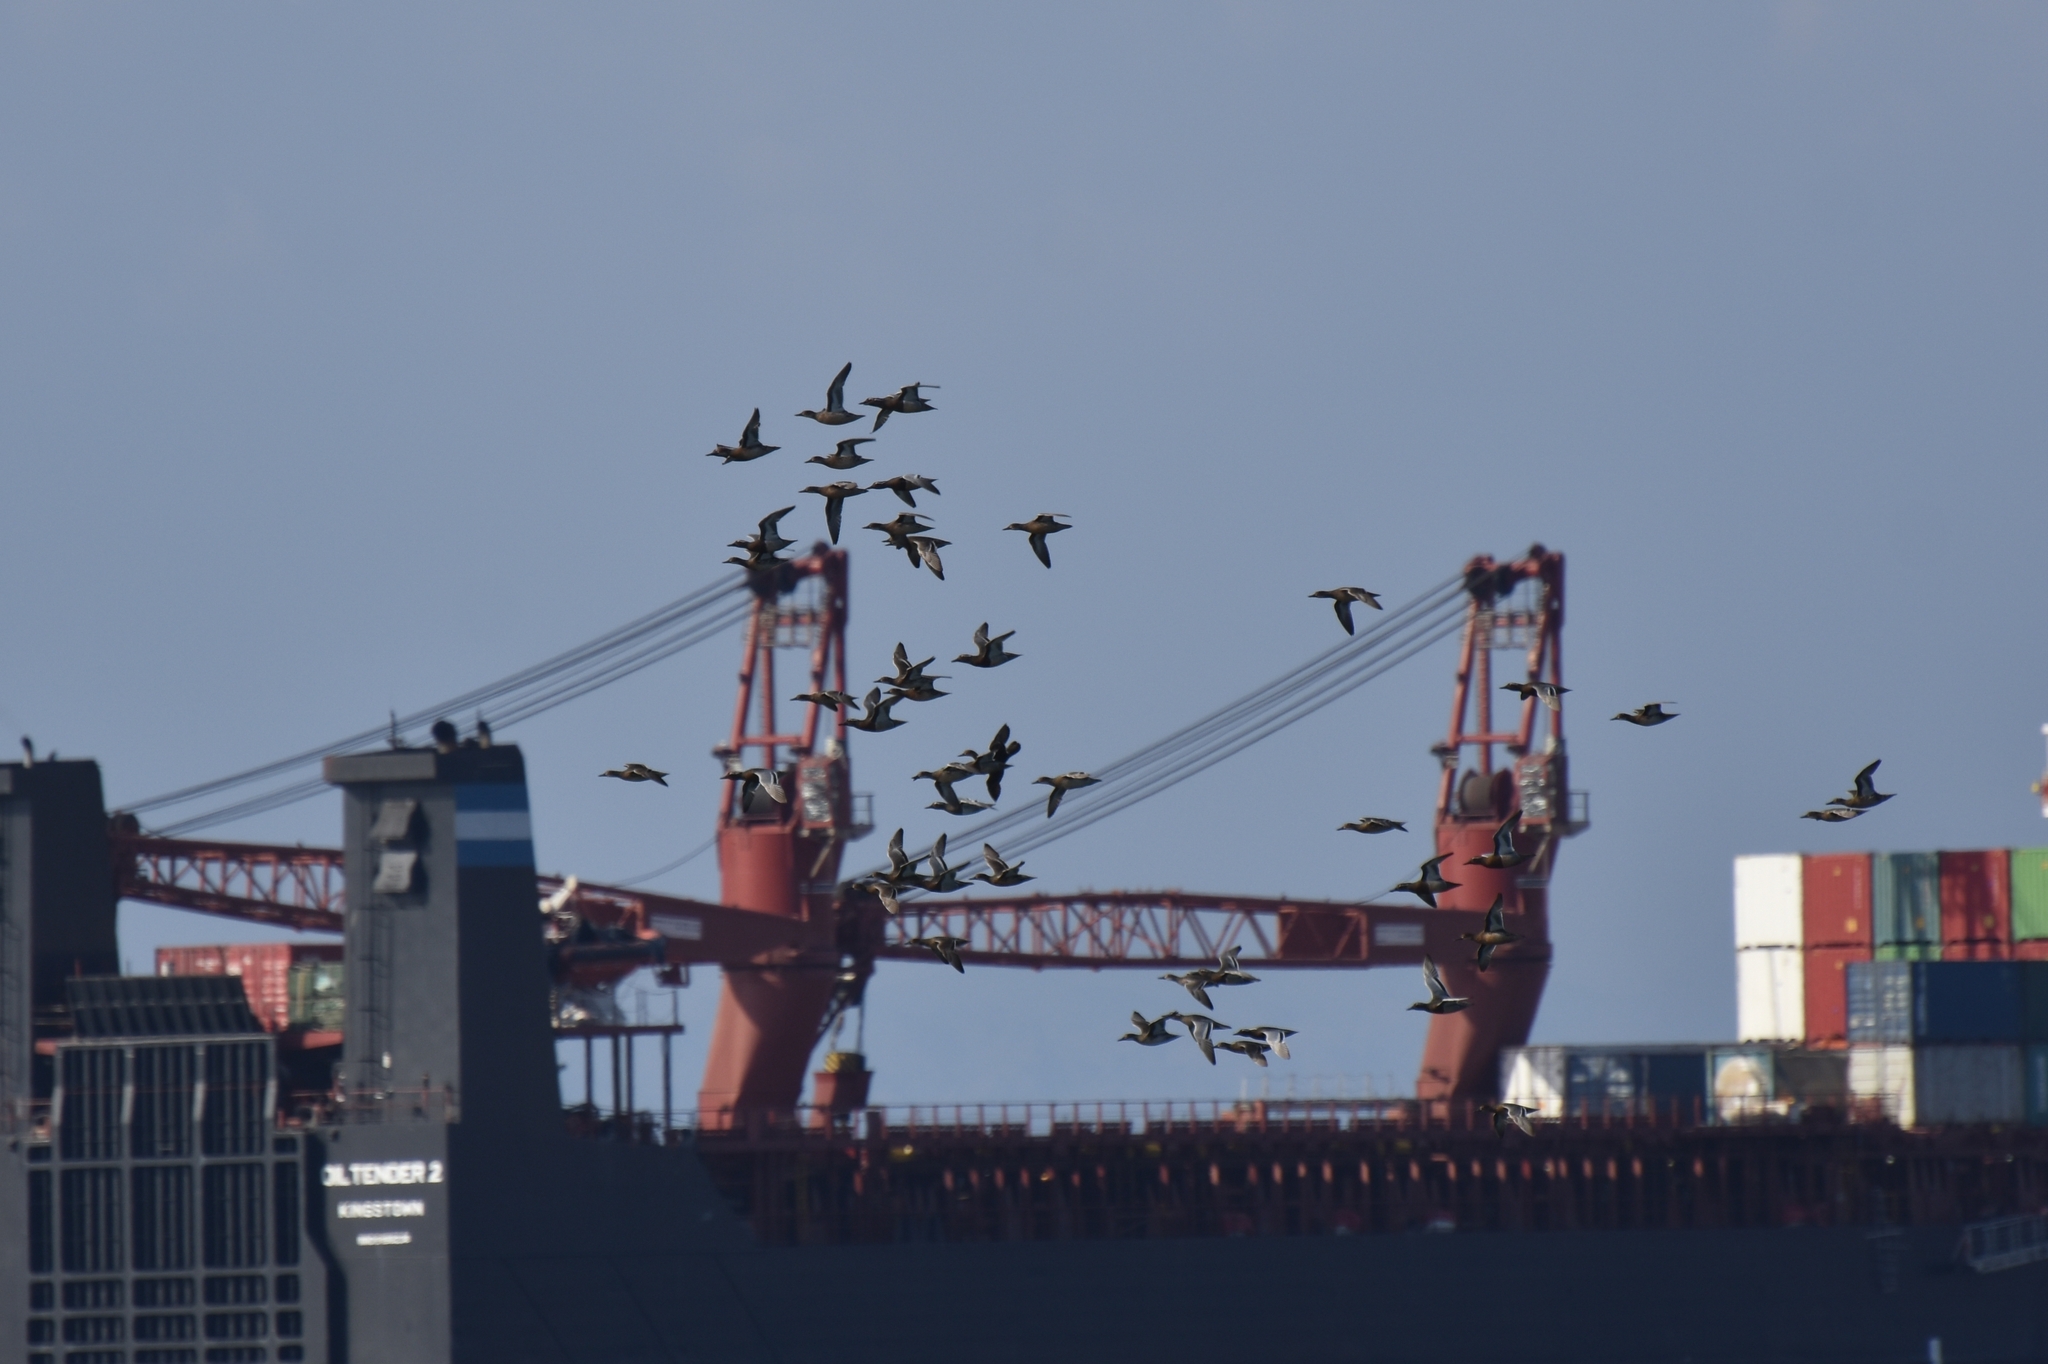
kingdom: Animalia
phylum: Chordata
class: Aves
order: Anseriformes
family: Anatidae
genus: Spatula
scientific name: Spatula querquedula
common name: Garganey
